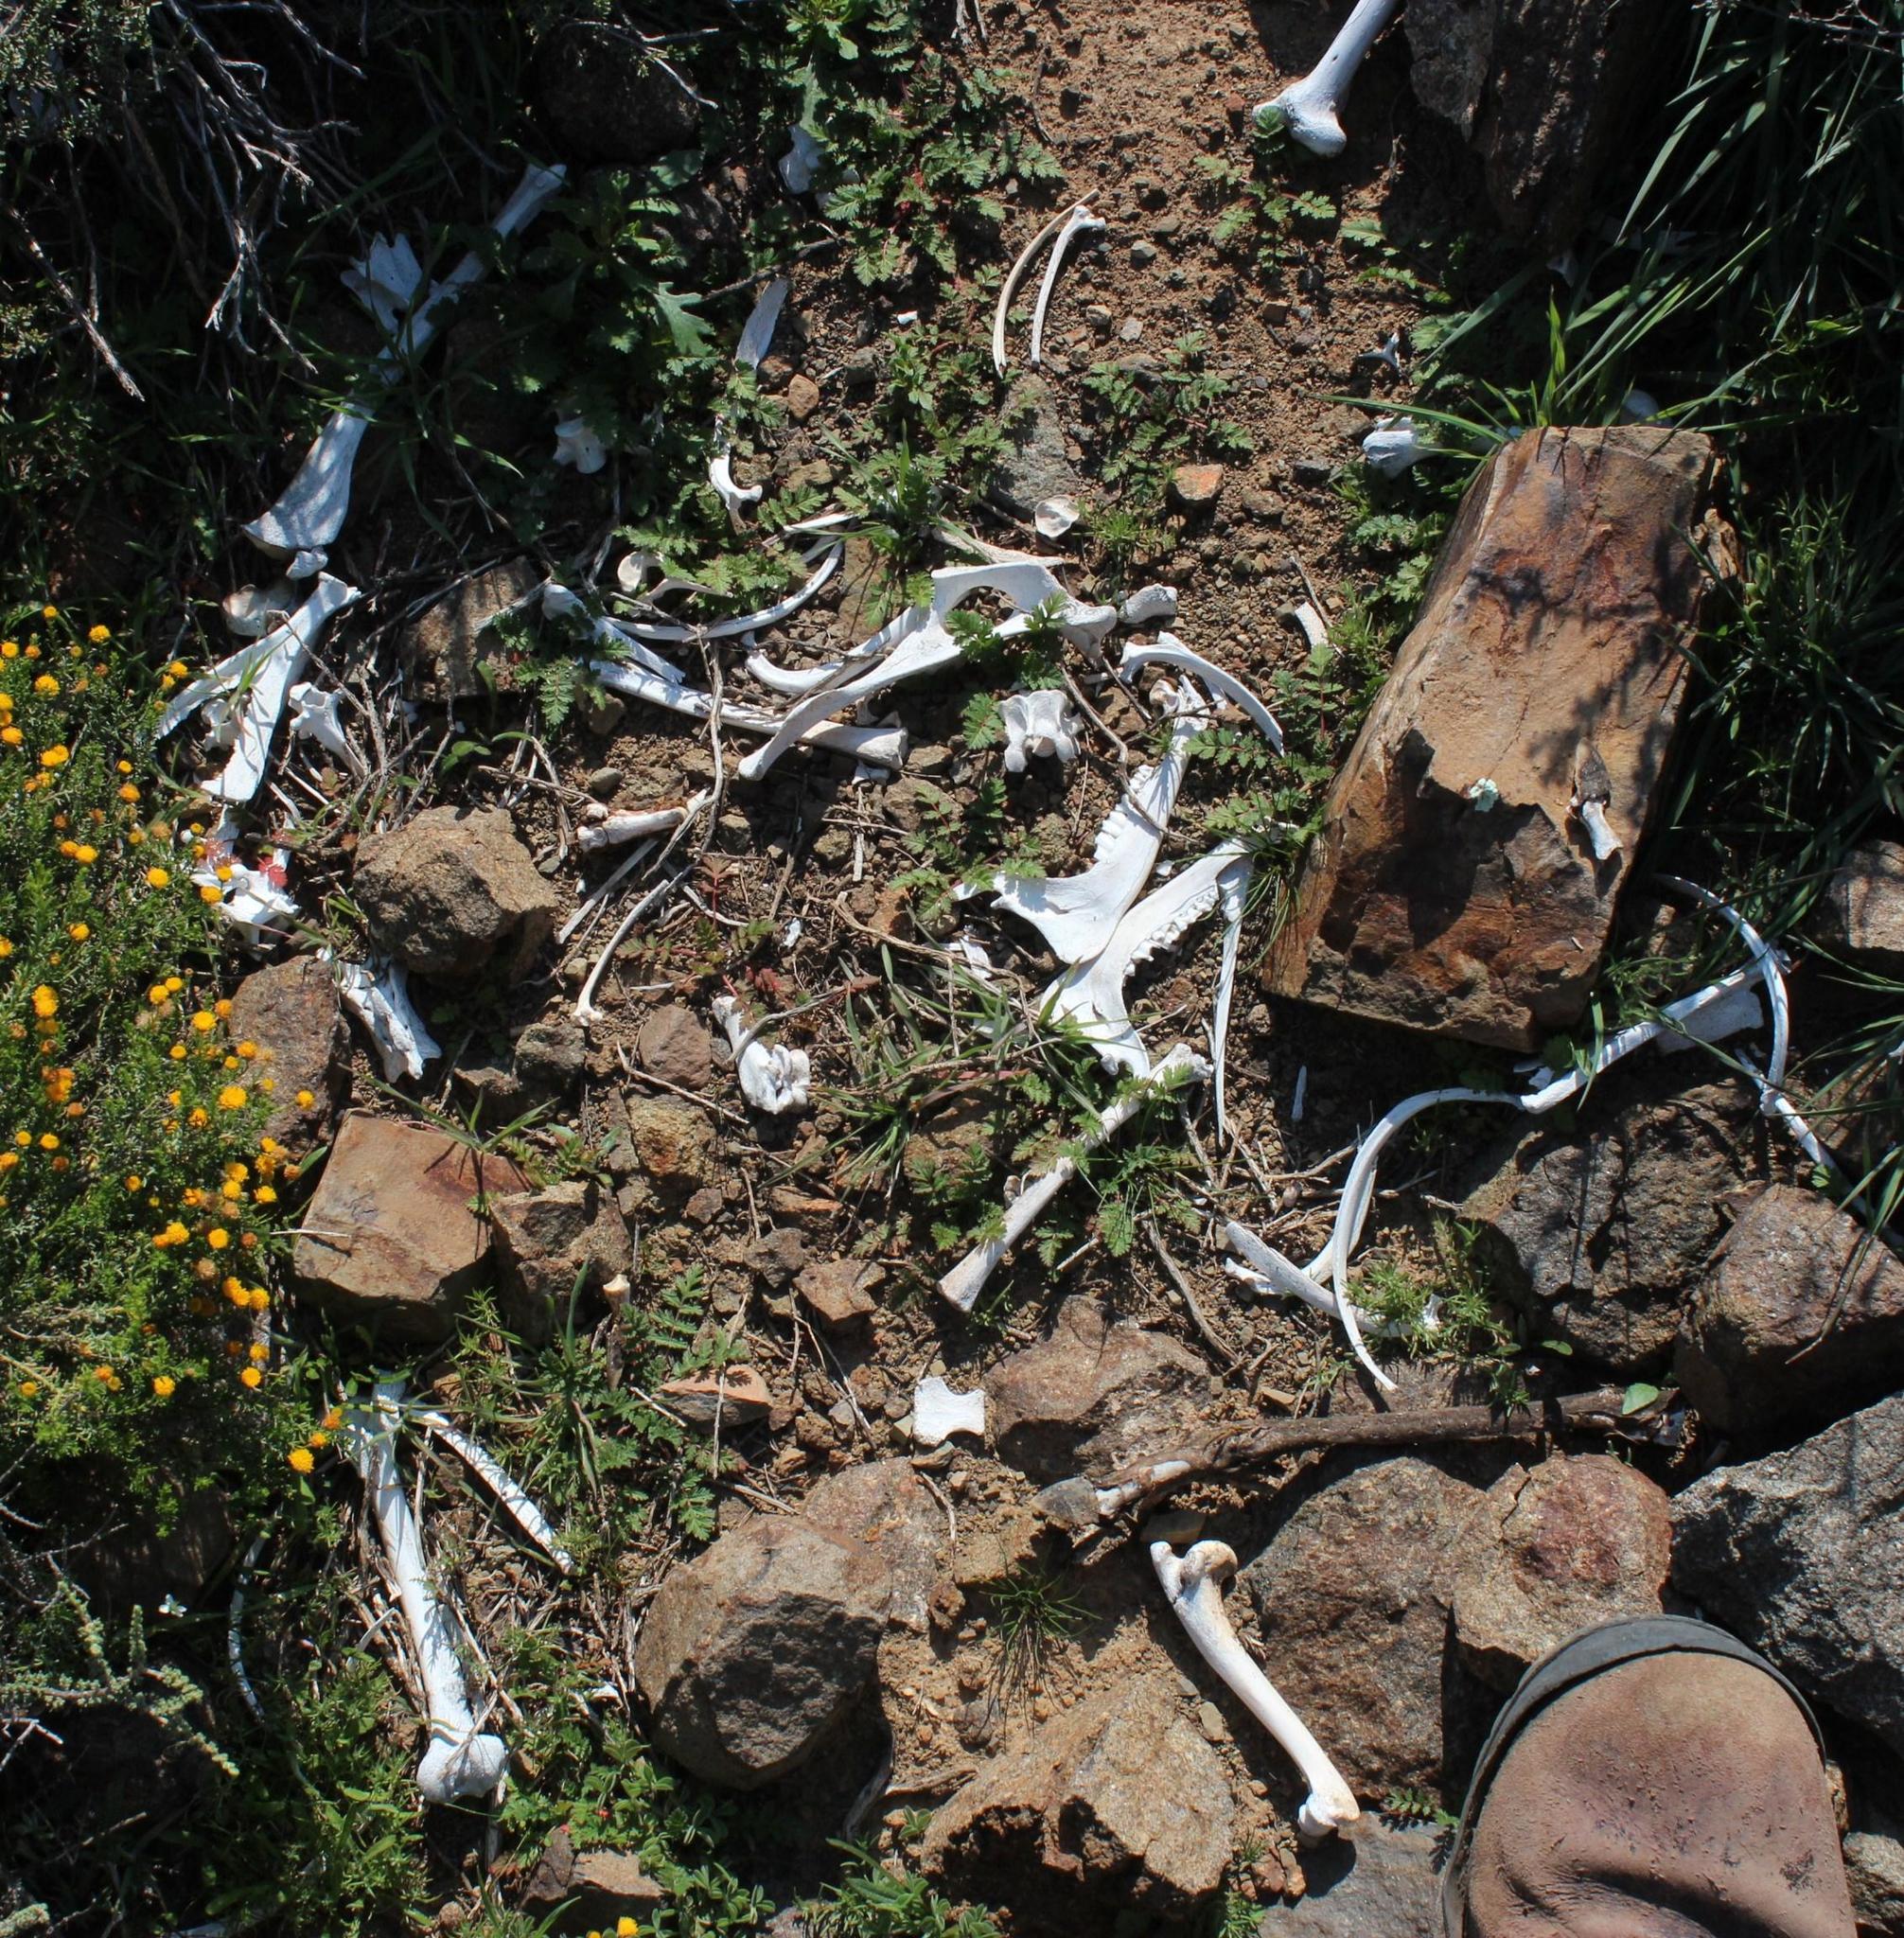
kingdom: Animalia
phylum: Chordata
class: Mammalia
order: Artiodactyla
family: Bovidae
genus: Sylvicapra
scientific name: Sylvicapra grimmia
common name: Bush duiker
